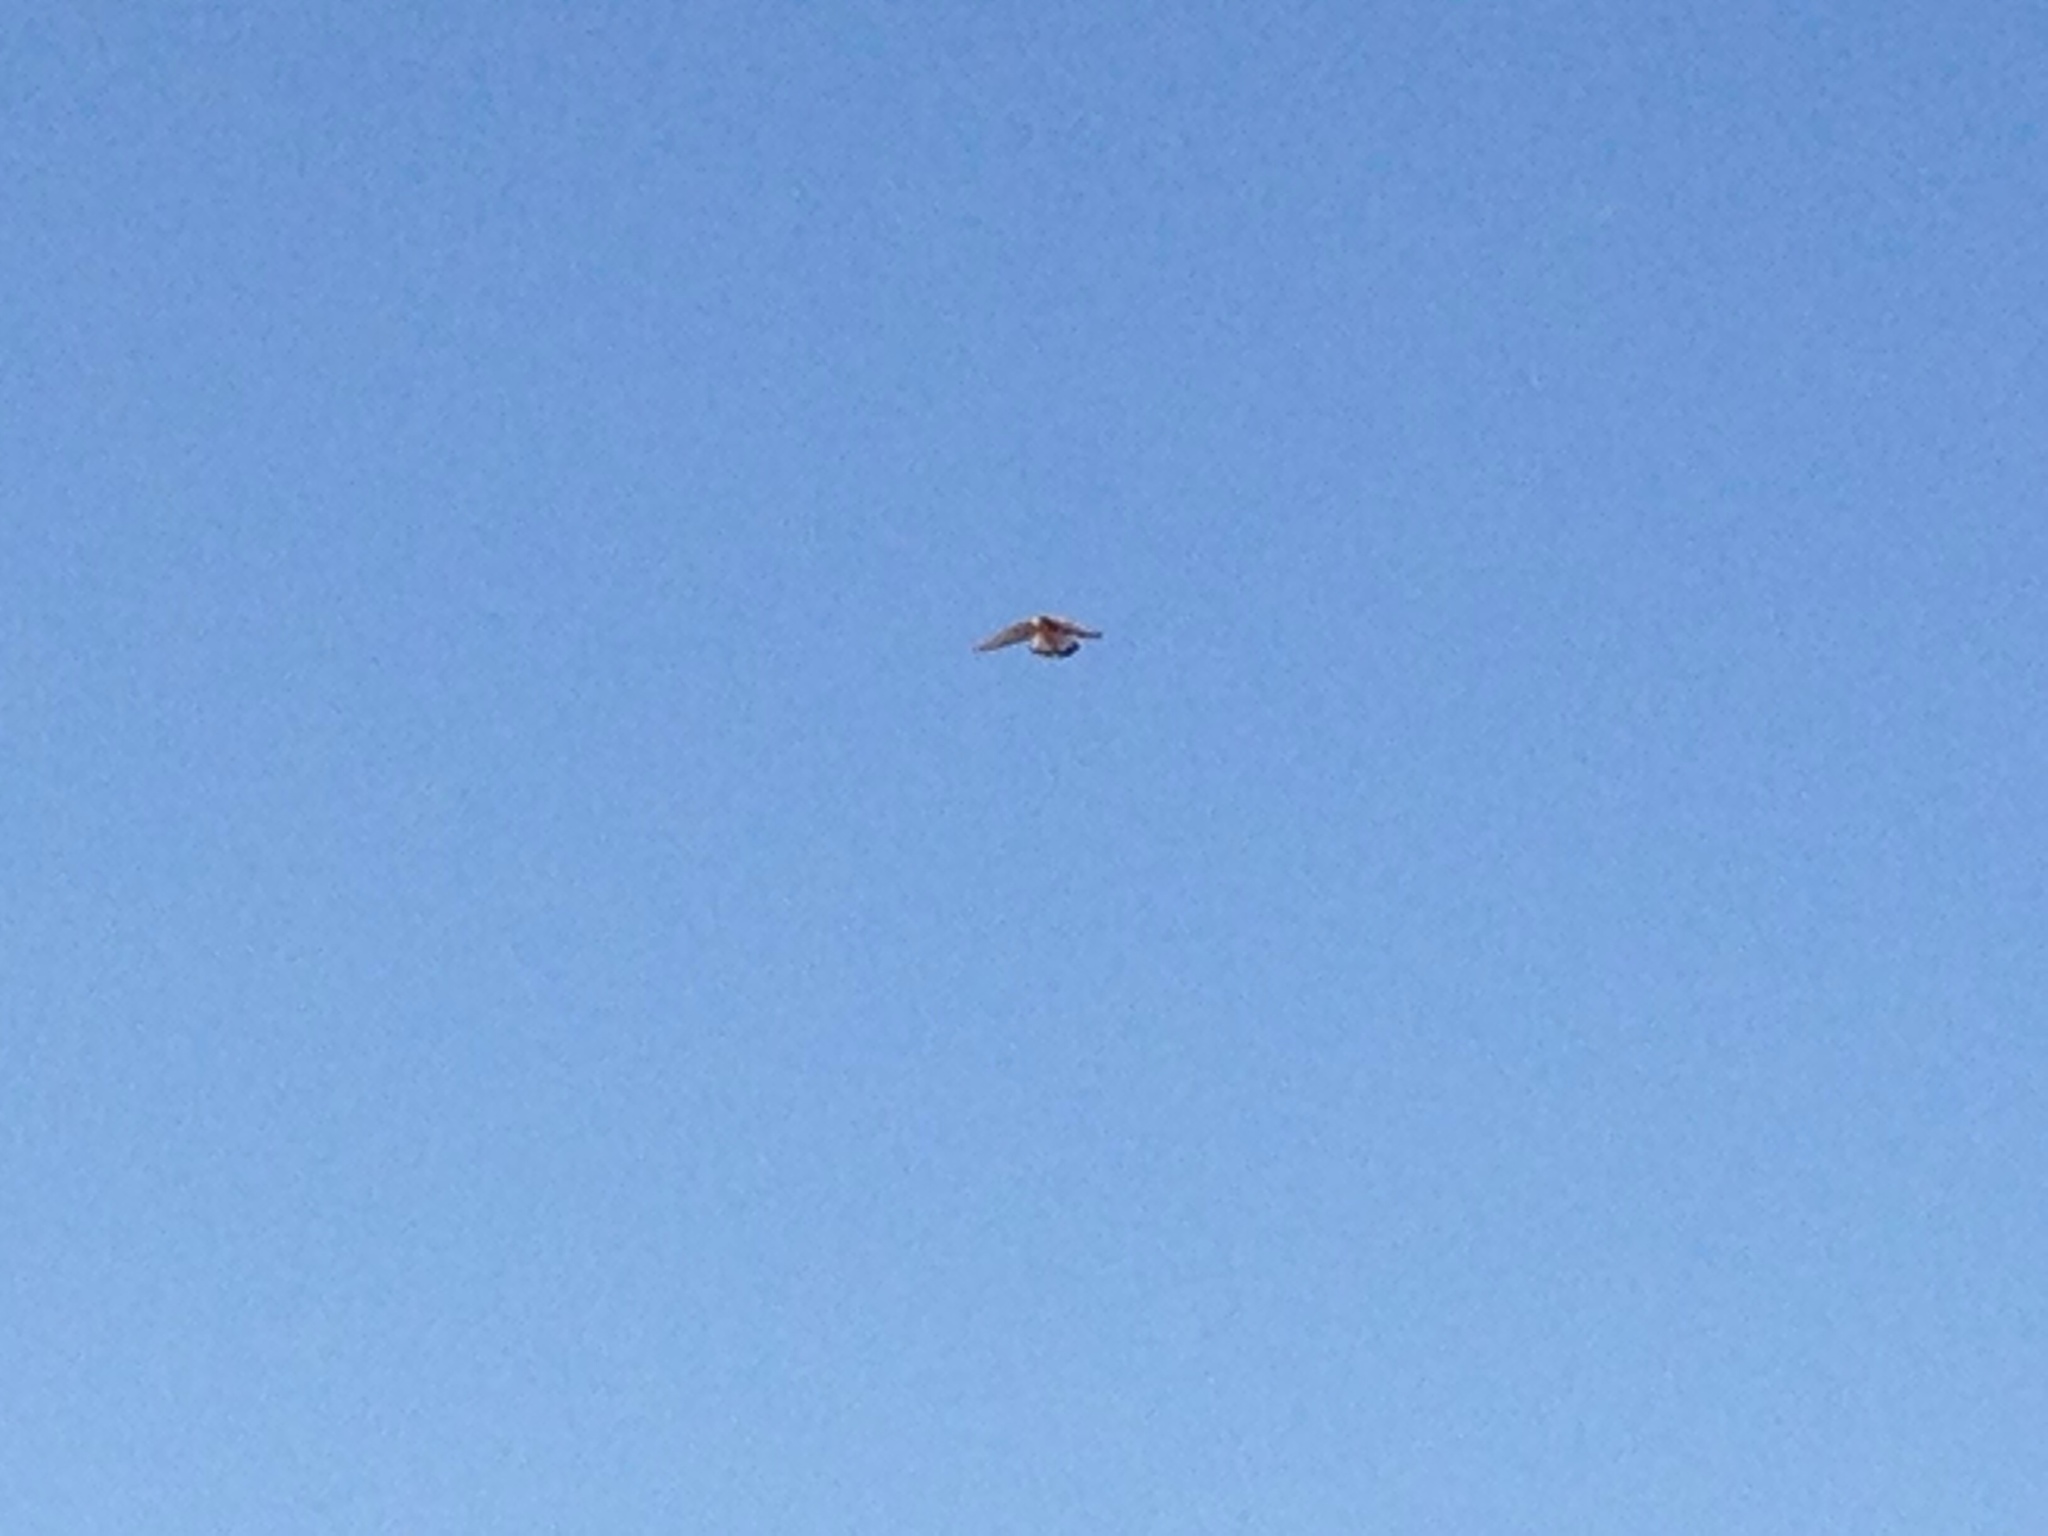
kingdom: Animalia
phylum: Chordata
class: Aves
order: Falconiformes
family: Falconidae
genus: Falco
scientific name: Falco tinnunculus
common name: Common kestrel
